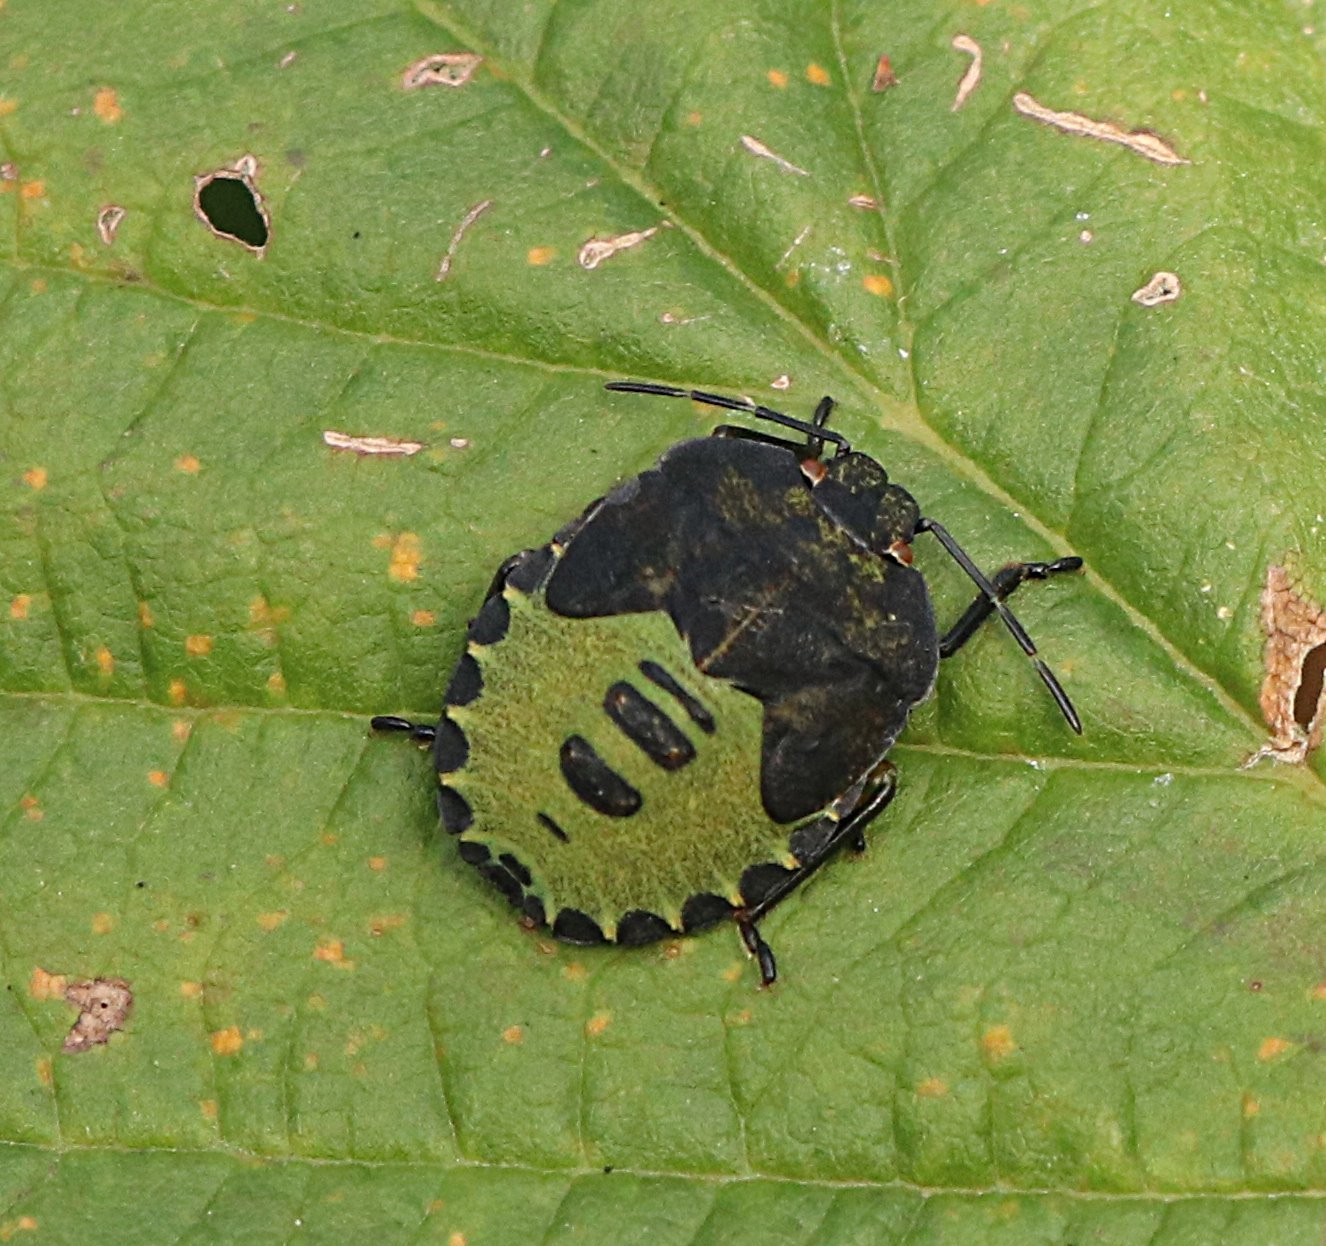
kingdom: Animalia
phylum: Arthropoda
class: Insecta
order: Hemiptera
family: Pentatomidae
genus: Palomena
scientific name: Palomena prasina
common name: Green shieldbug
